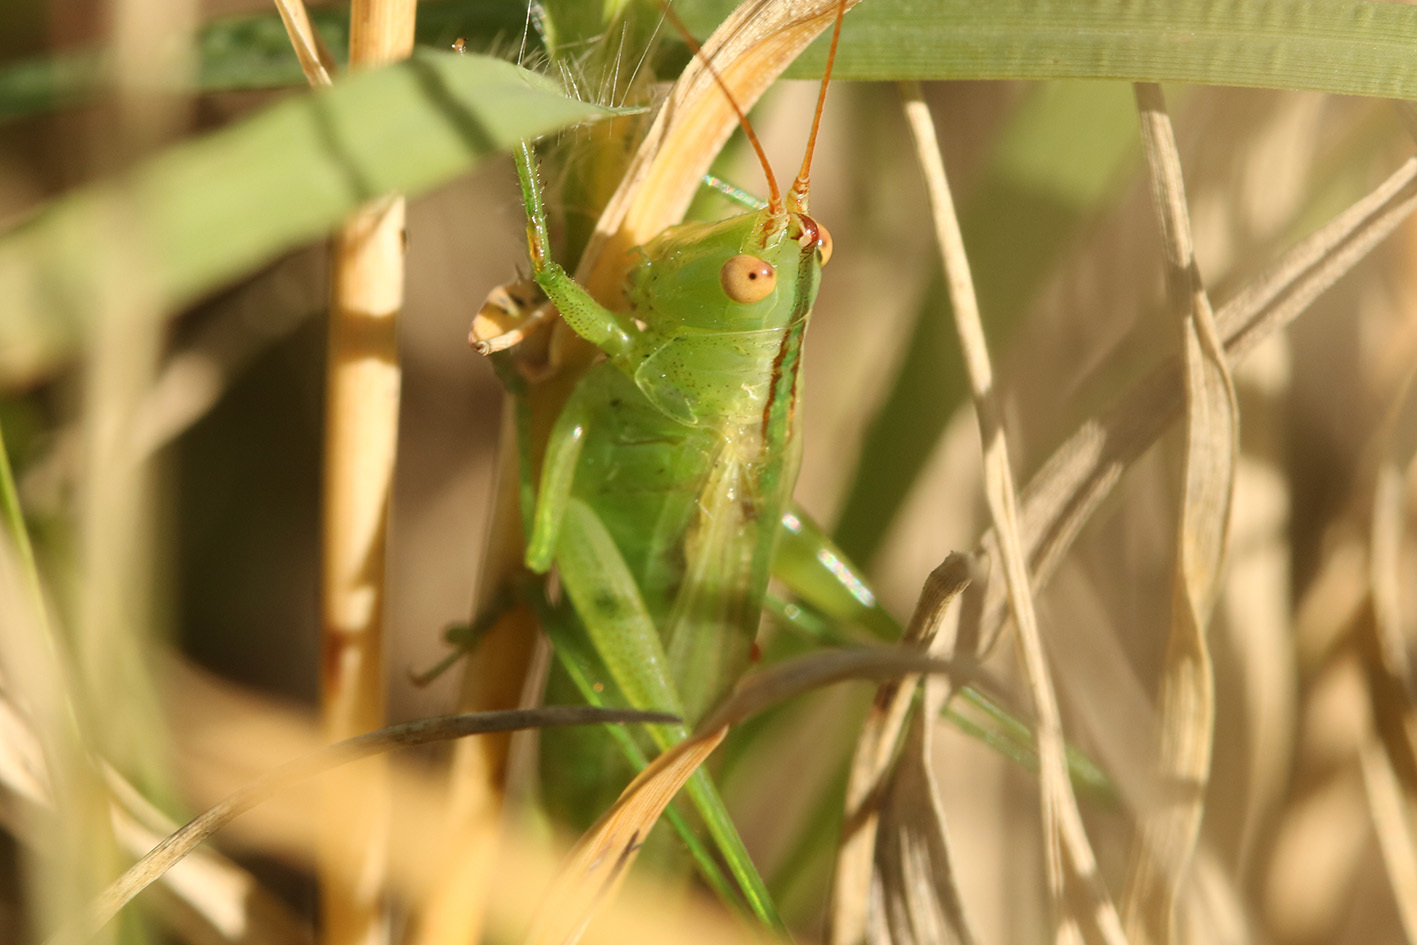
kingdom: Animalia
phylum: Arthropoda
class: Insecta
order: Orthoptera
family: Tettigoniidae
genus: Conocephalus
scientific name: Conocephalus longipes
